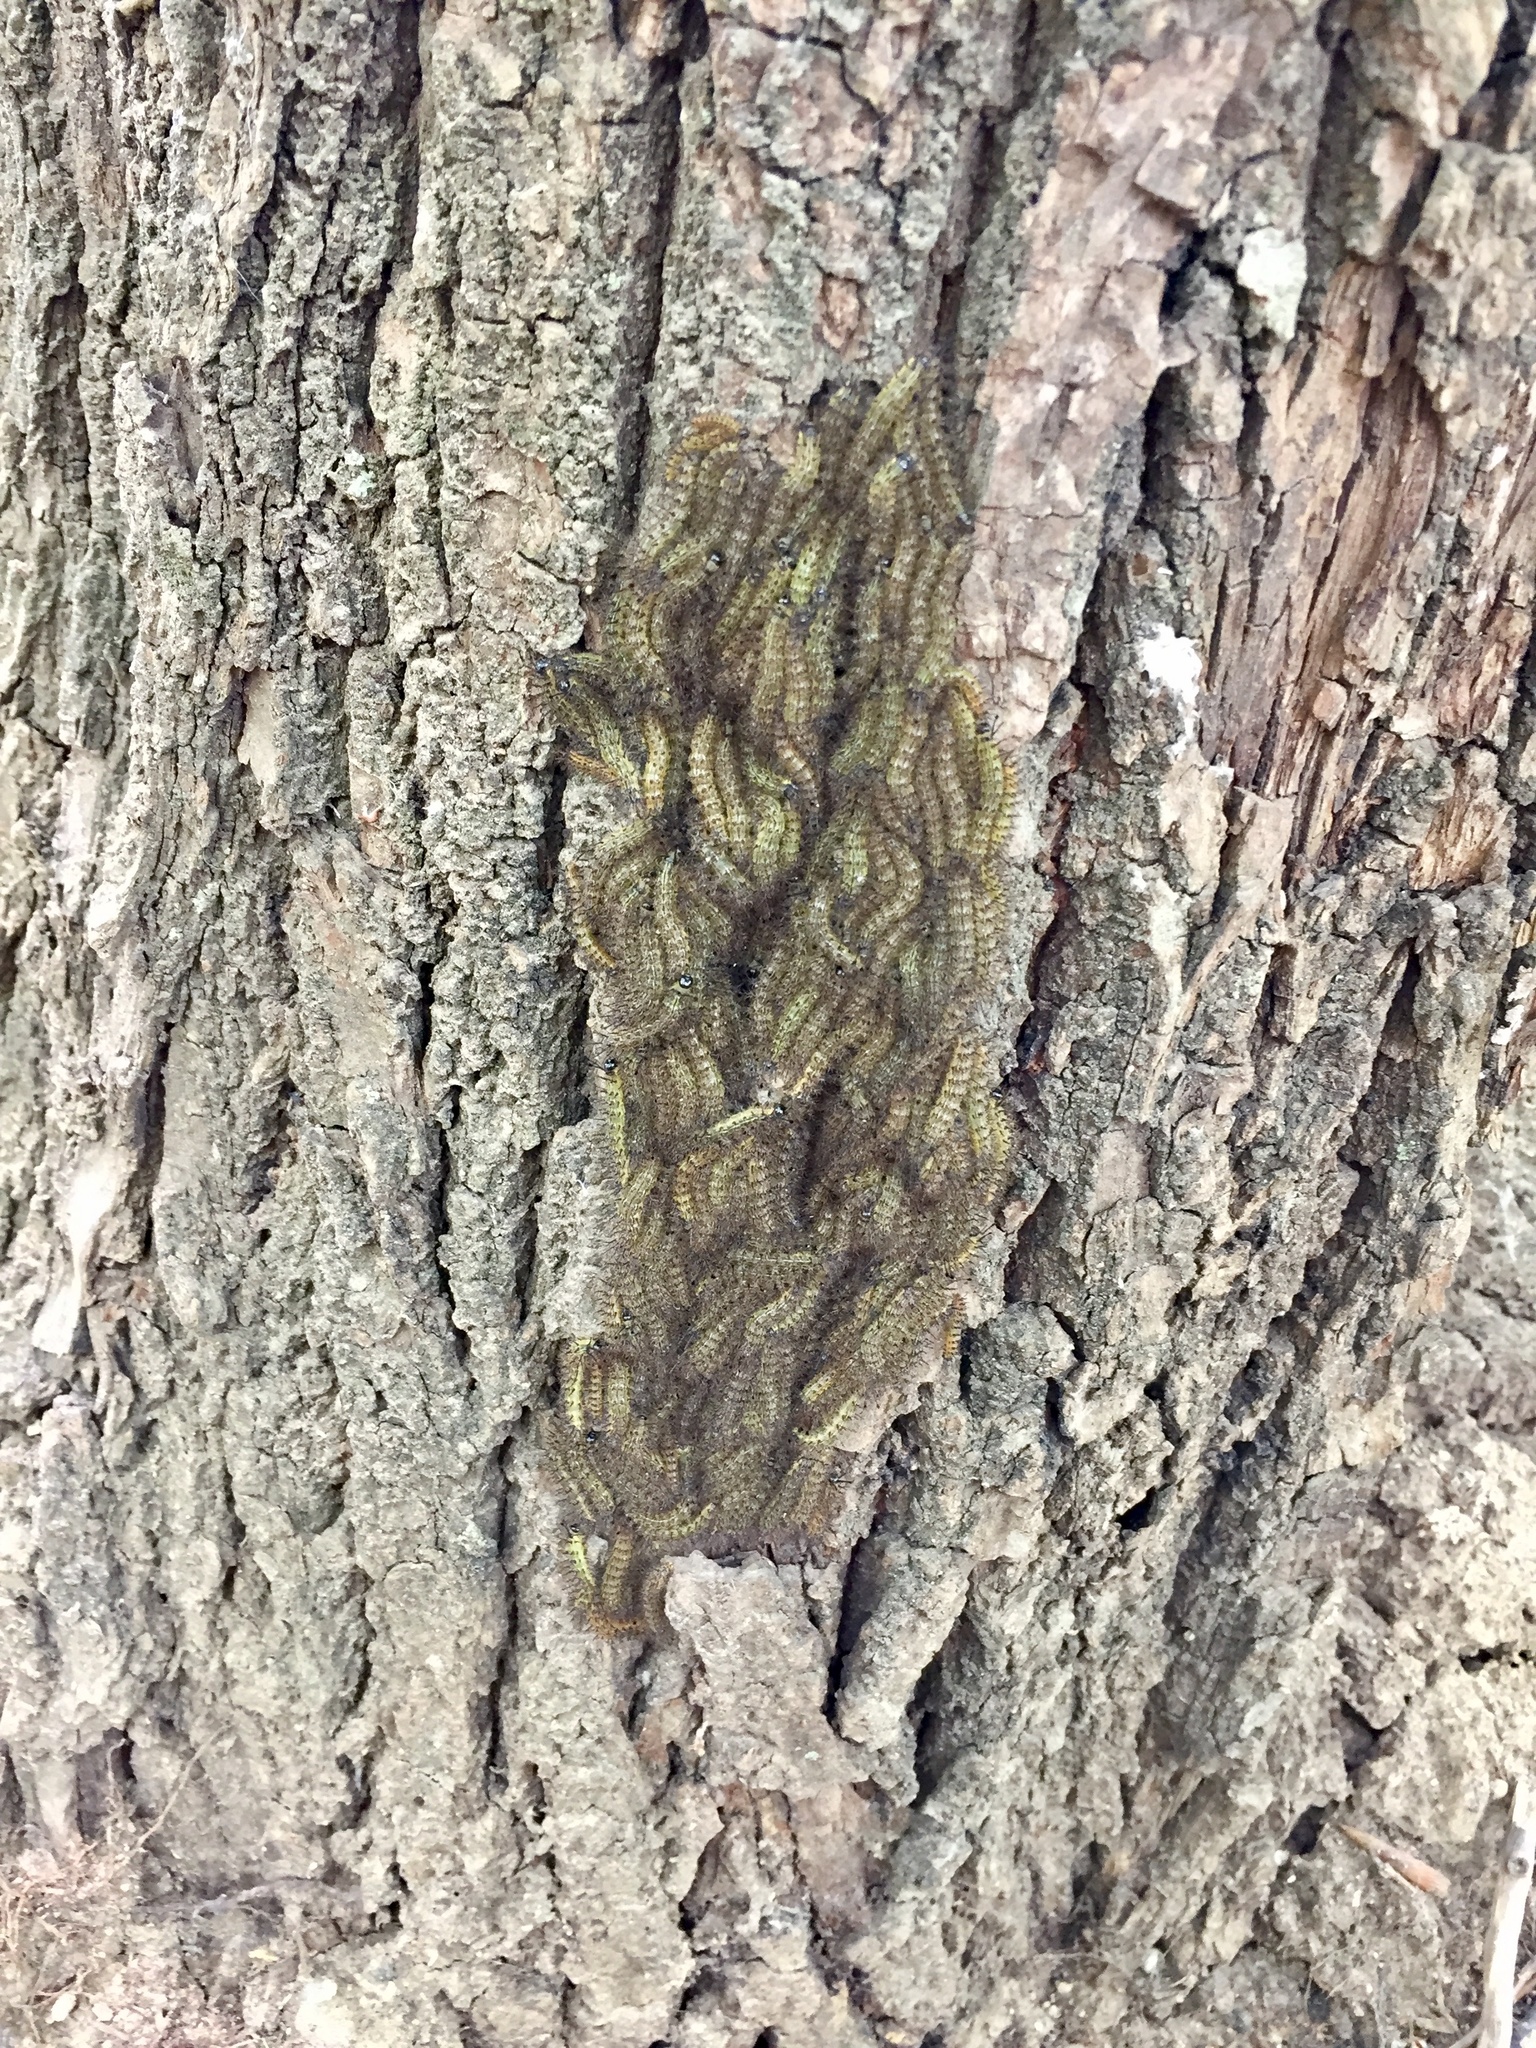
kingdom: Animalia
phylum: Arthropoda
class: Insecta
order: Lepidoptera
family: Saturniidae
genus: Hylesia
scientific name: Hylesia nigricans
